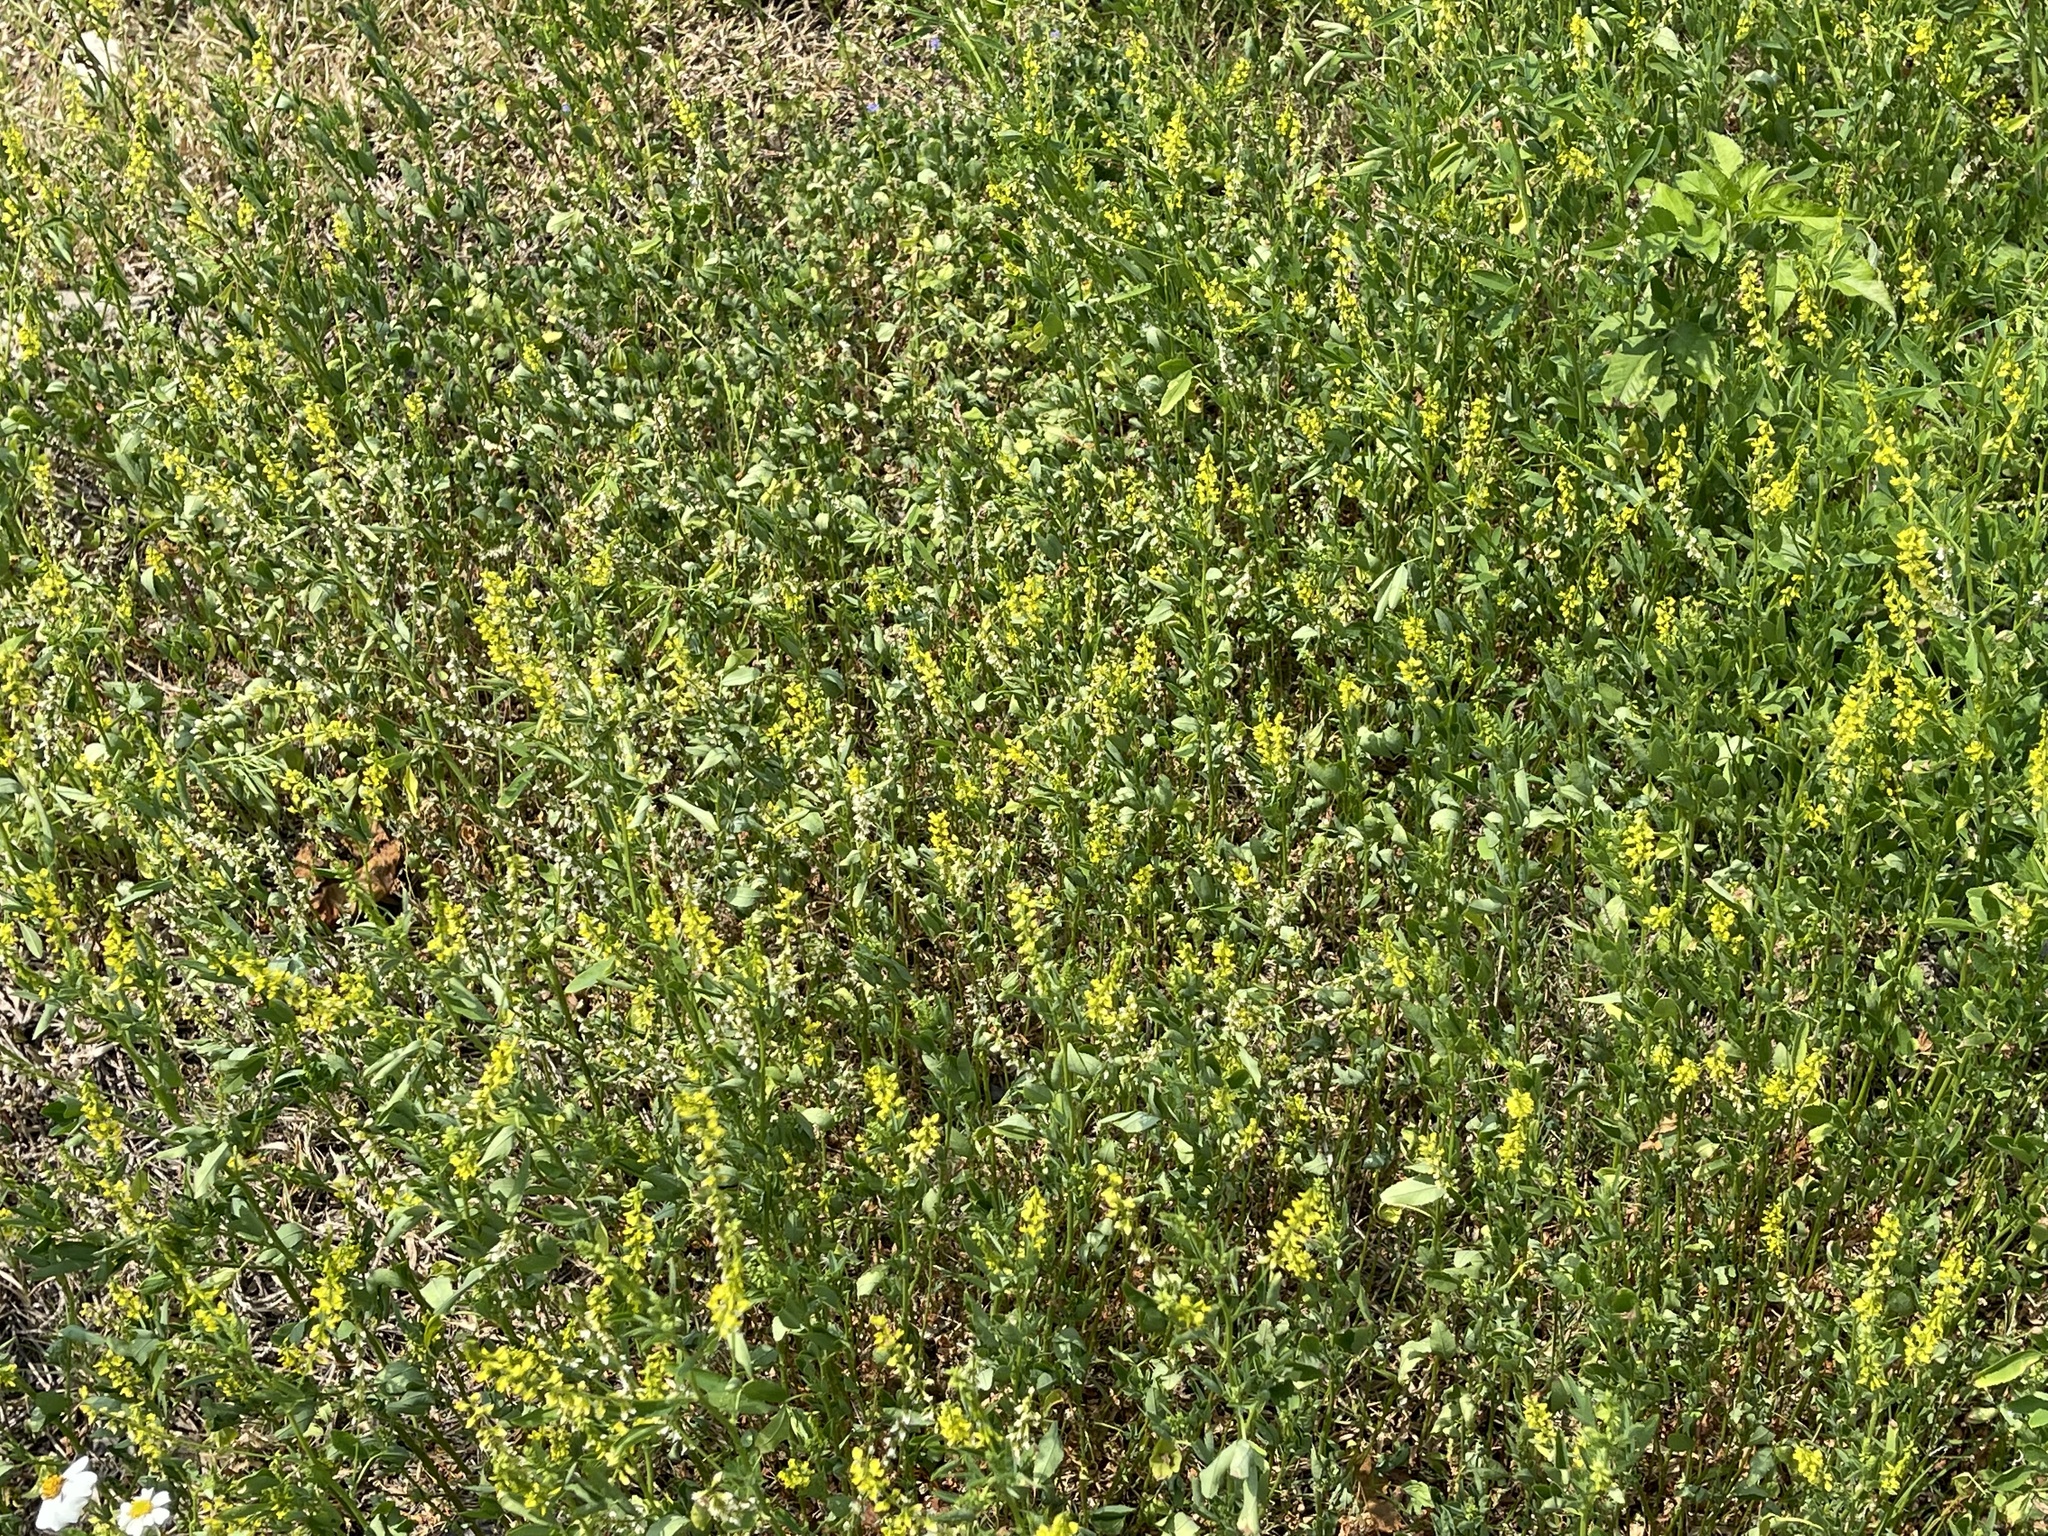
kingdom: Plantae
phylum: Tracheophyta
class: Magnoliopsida
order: Fabales
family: Fabaceae
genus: Melilotus
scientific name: Melilotus indicus
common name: Small melilot
